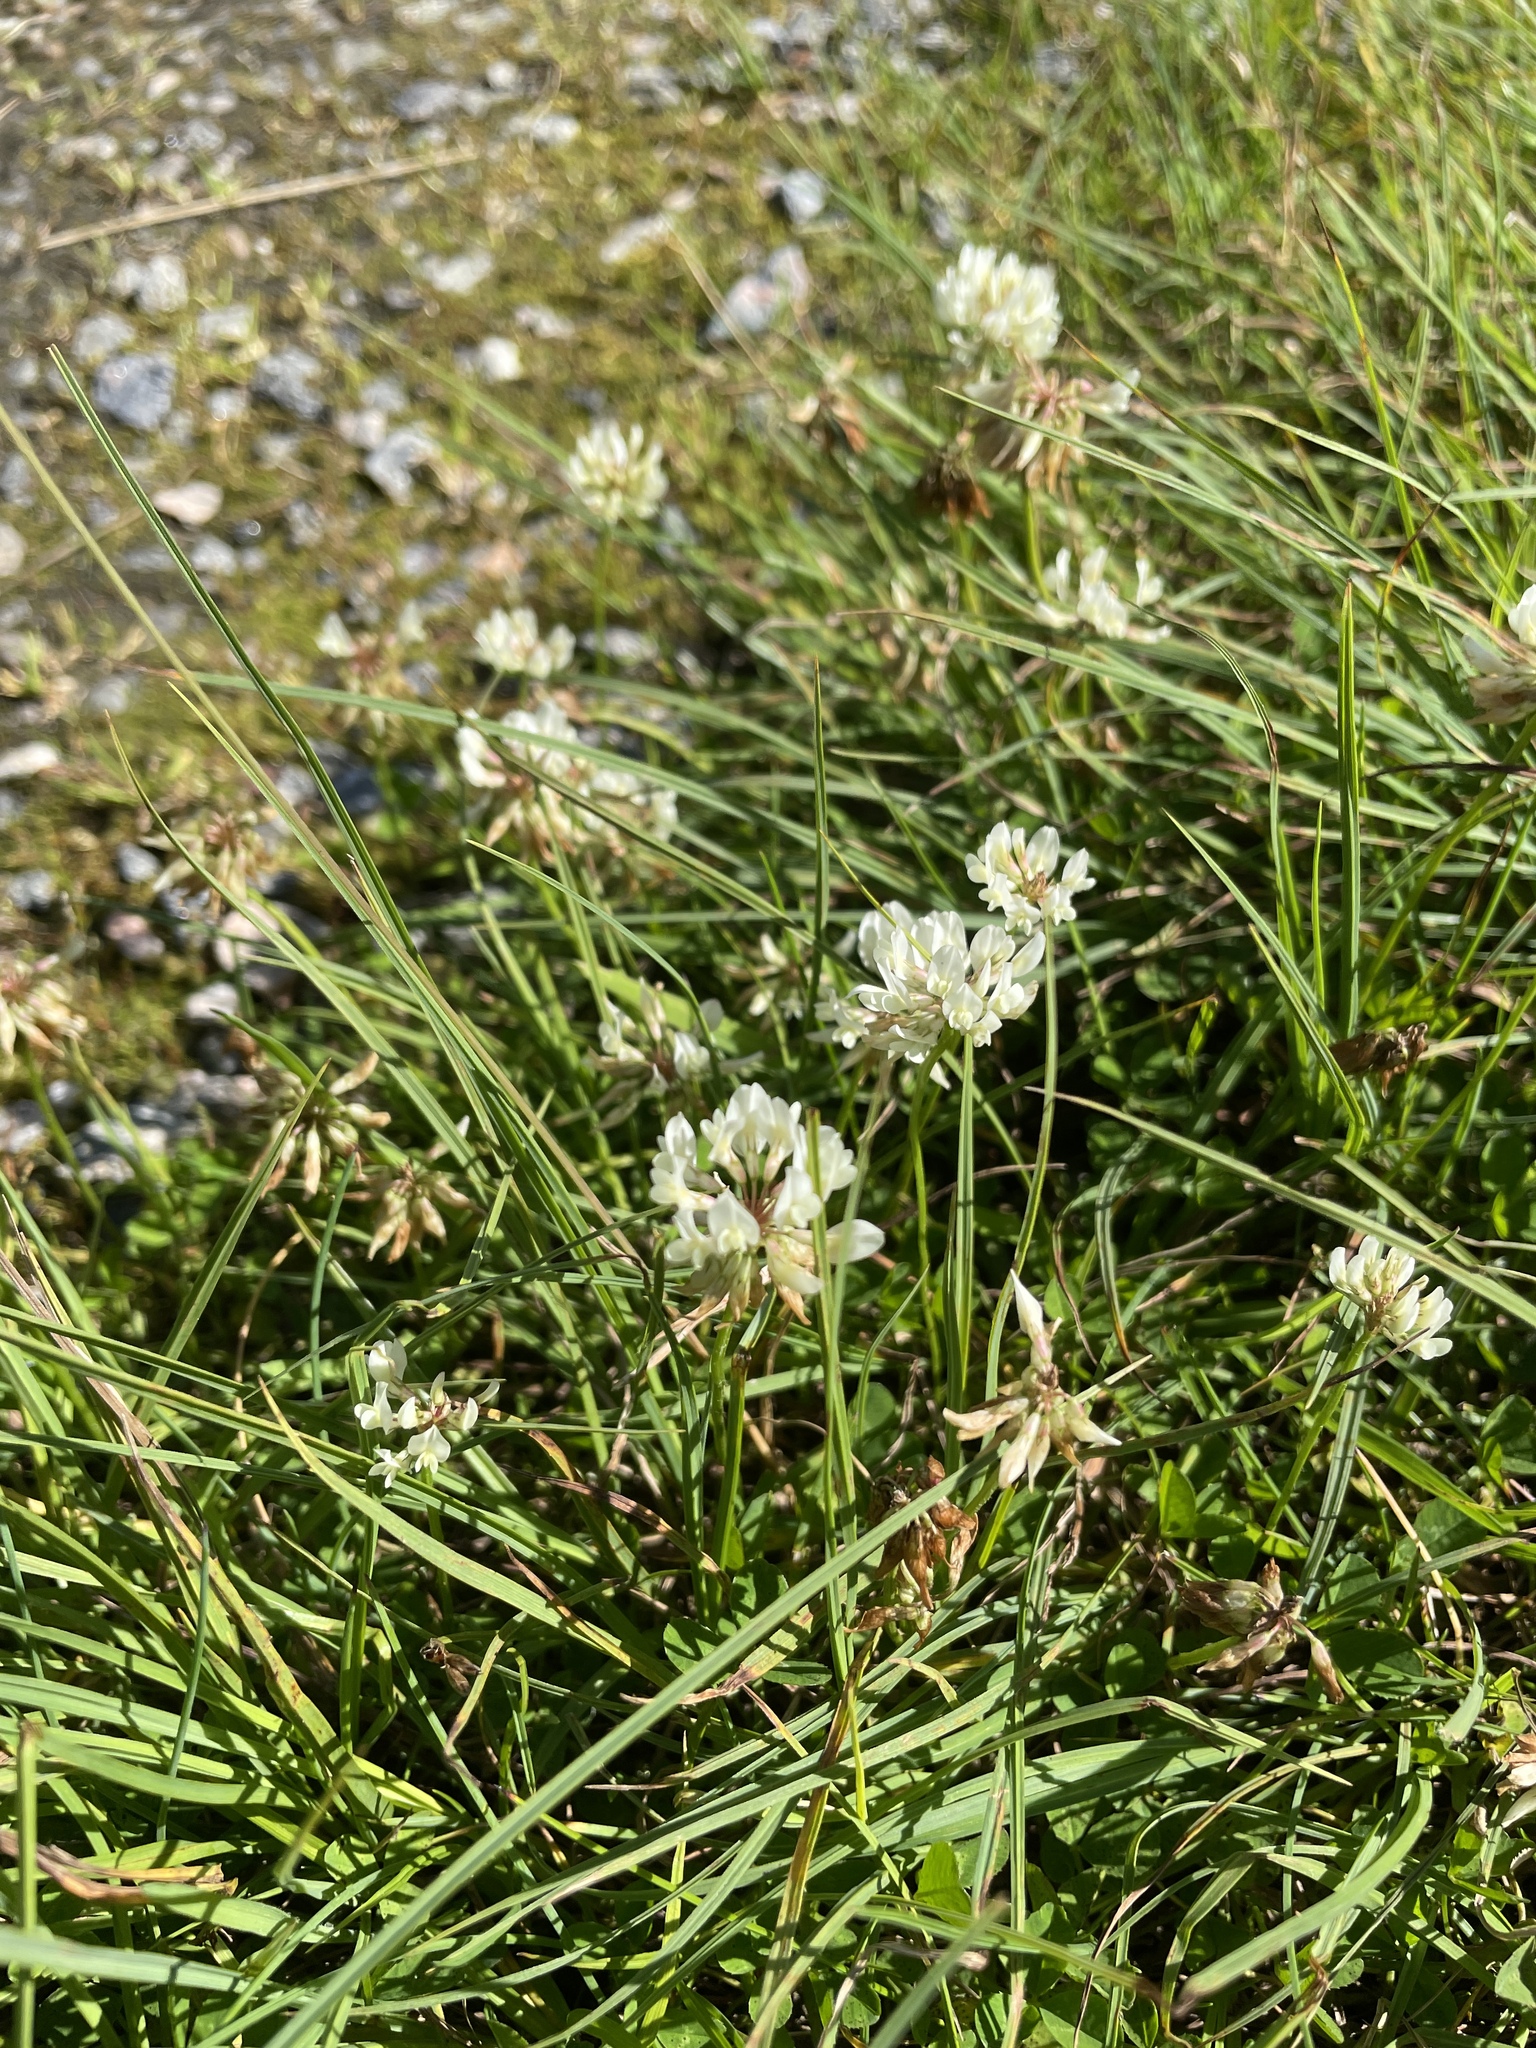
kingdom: Plantae
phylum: Tracheophyta
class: Magnoliopsida
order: Fabales
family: Fabaceae
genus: Trifolium
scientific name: Trifolium repens
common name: White clover
